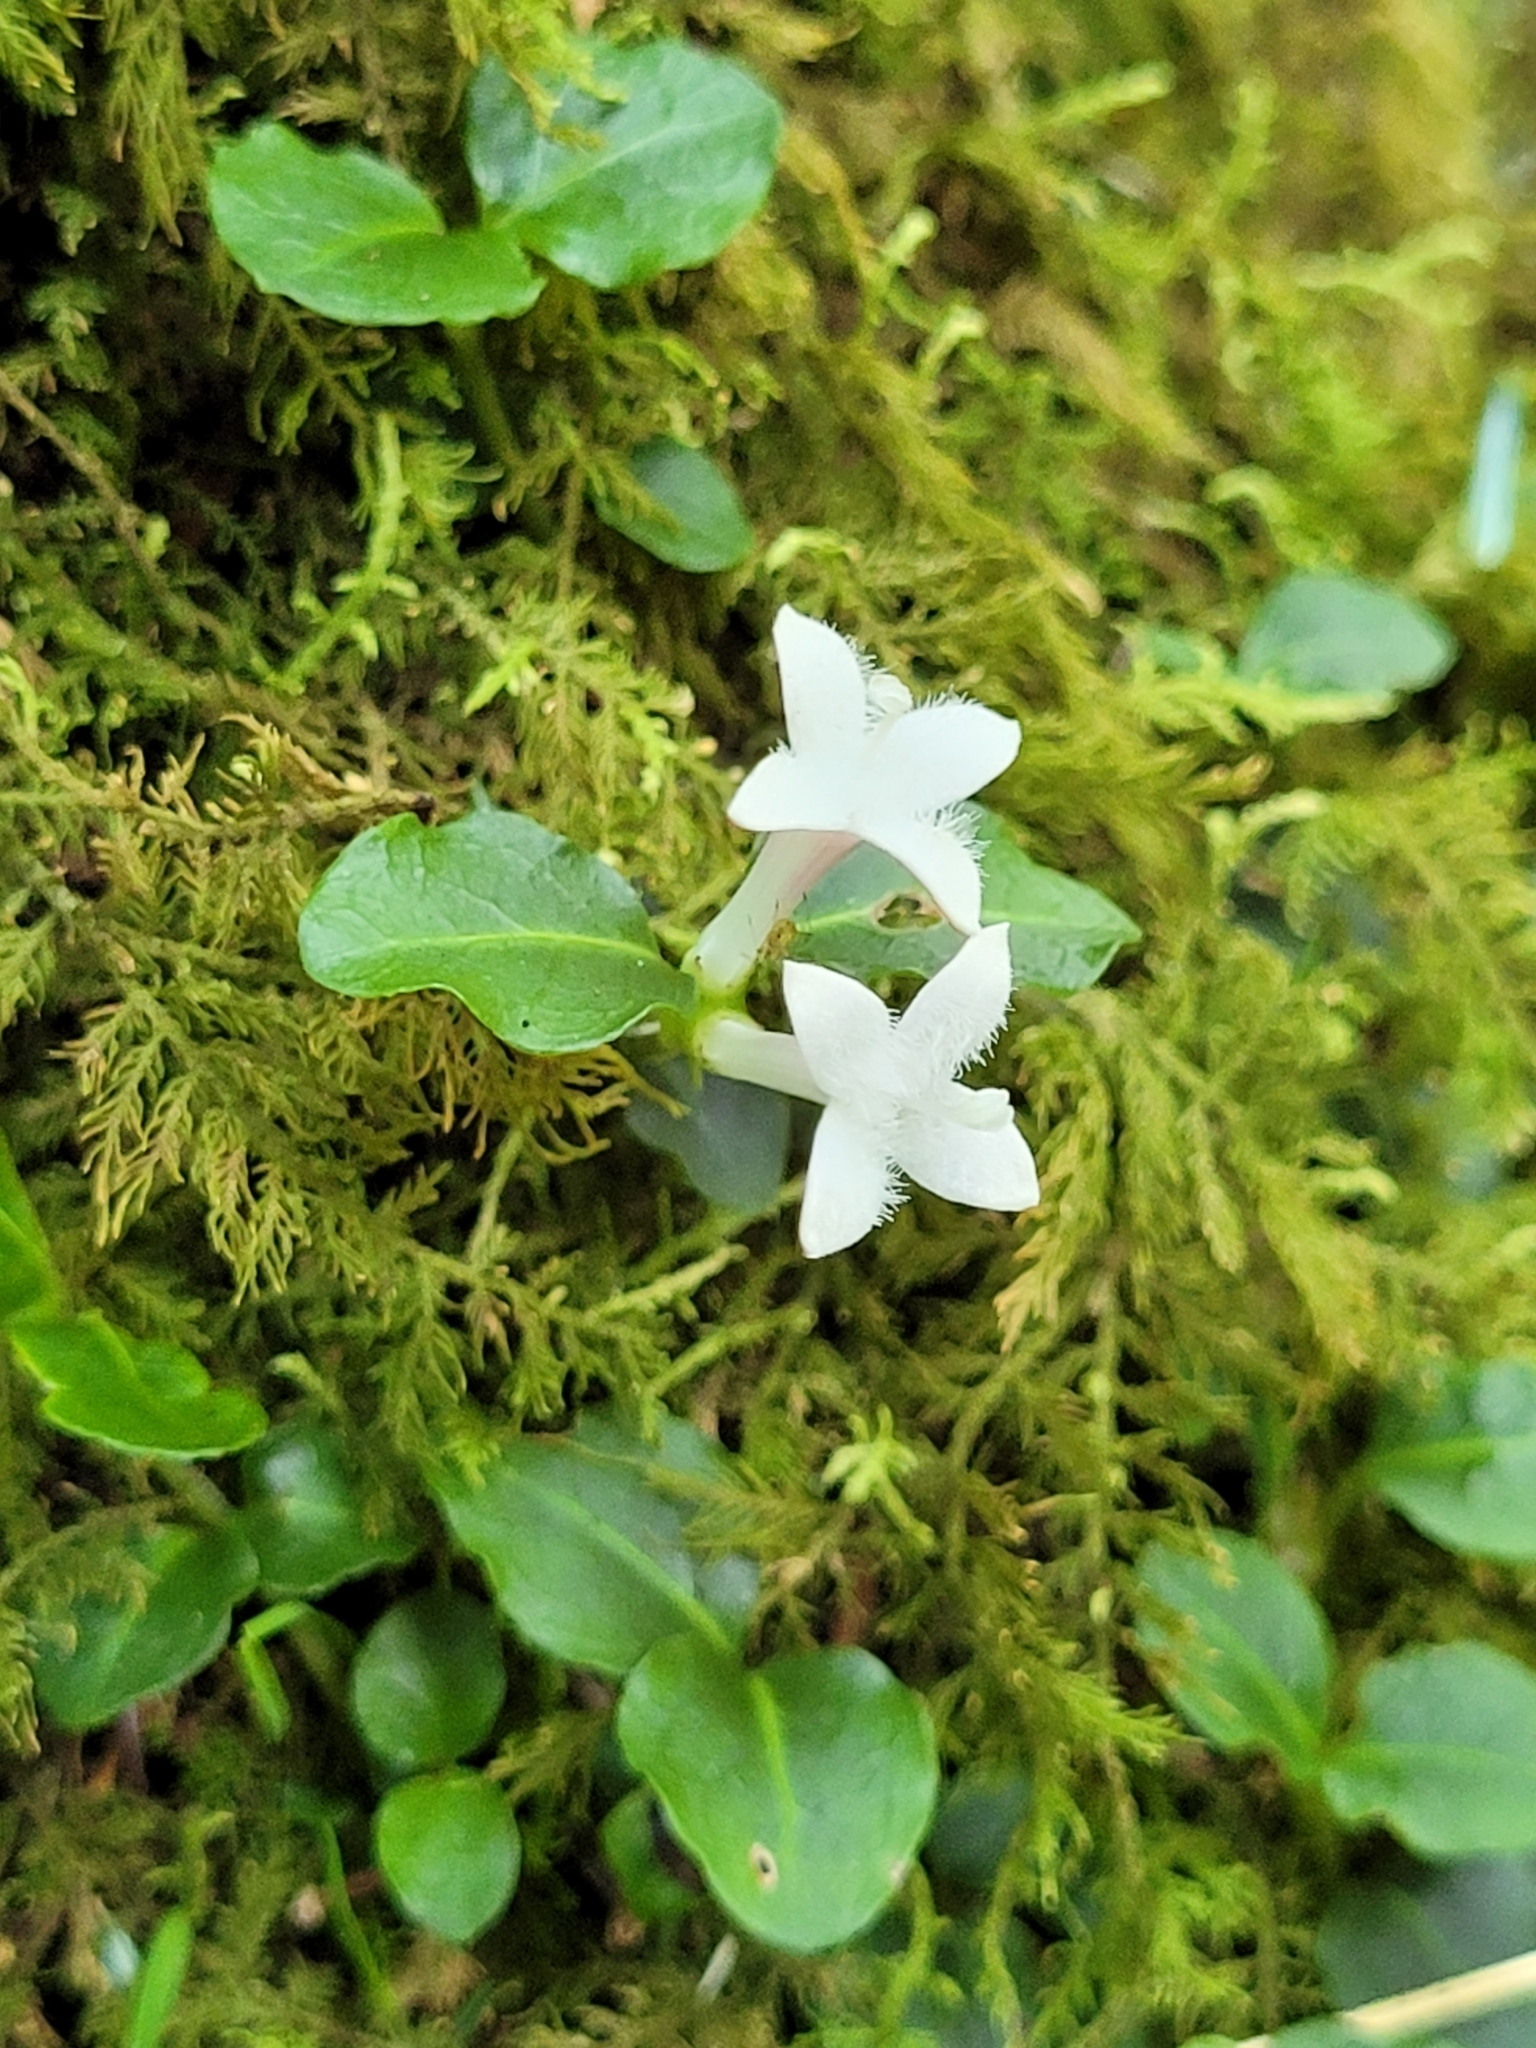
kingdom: Plantae
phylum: Tracheophyta
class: Magnoliopsida
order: Gentianales
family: Rubiaceae
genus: Mitchella
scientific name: Mitchella repens
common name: Partridge-berry
